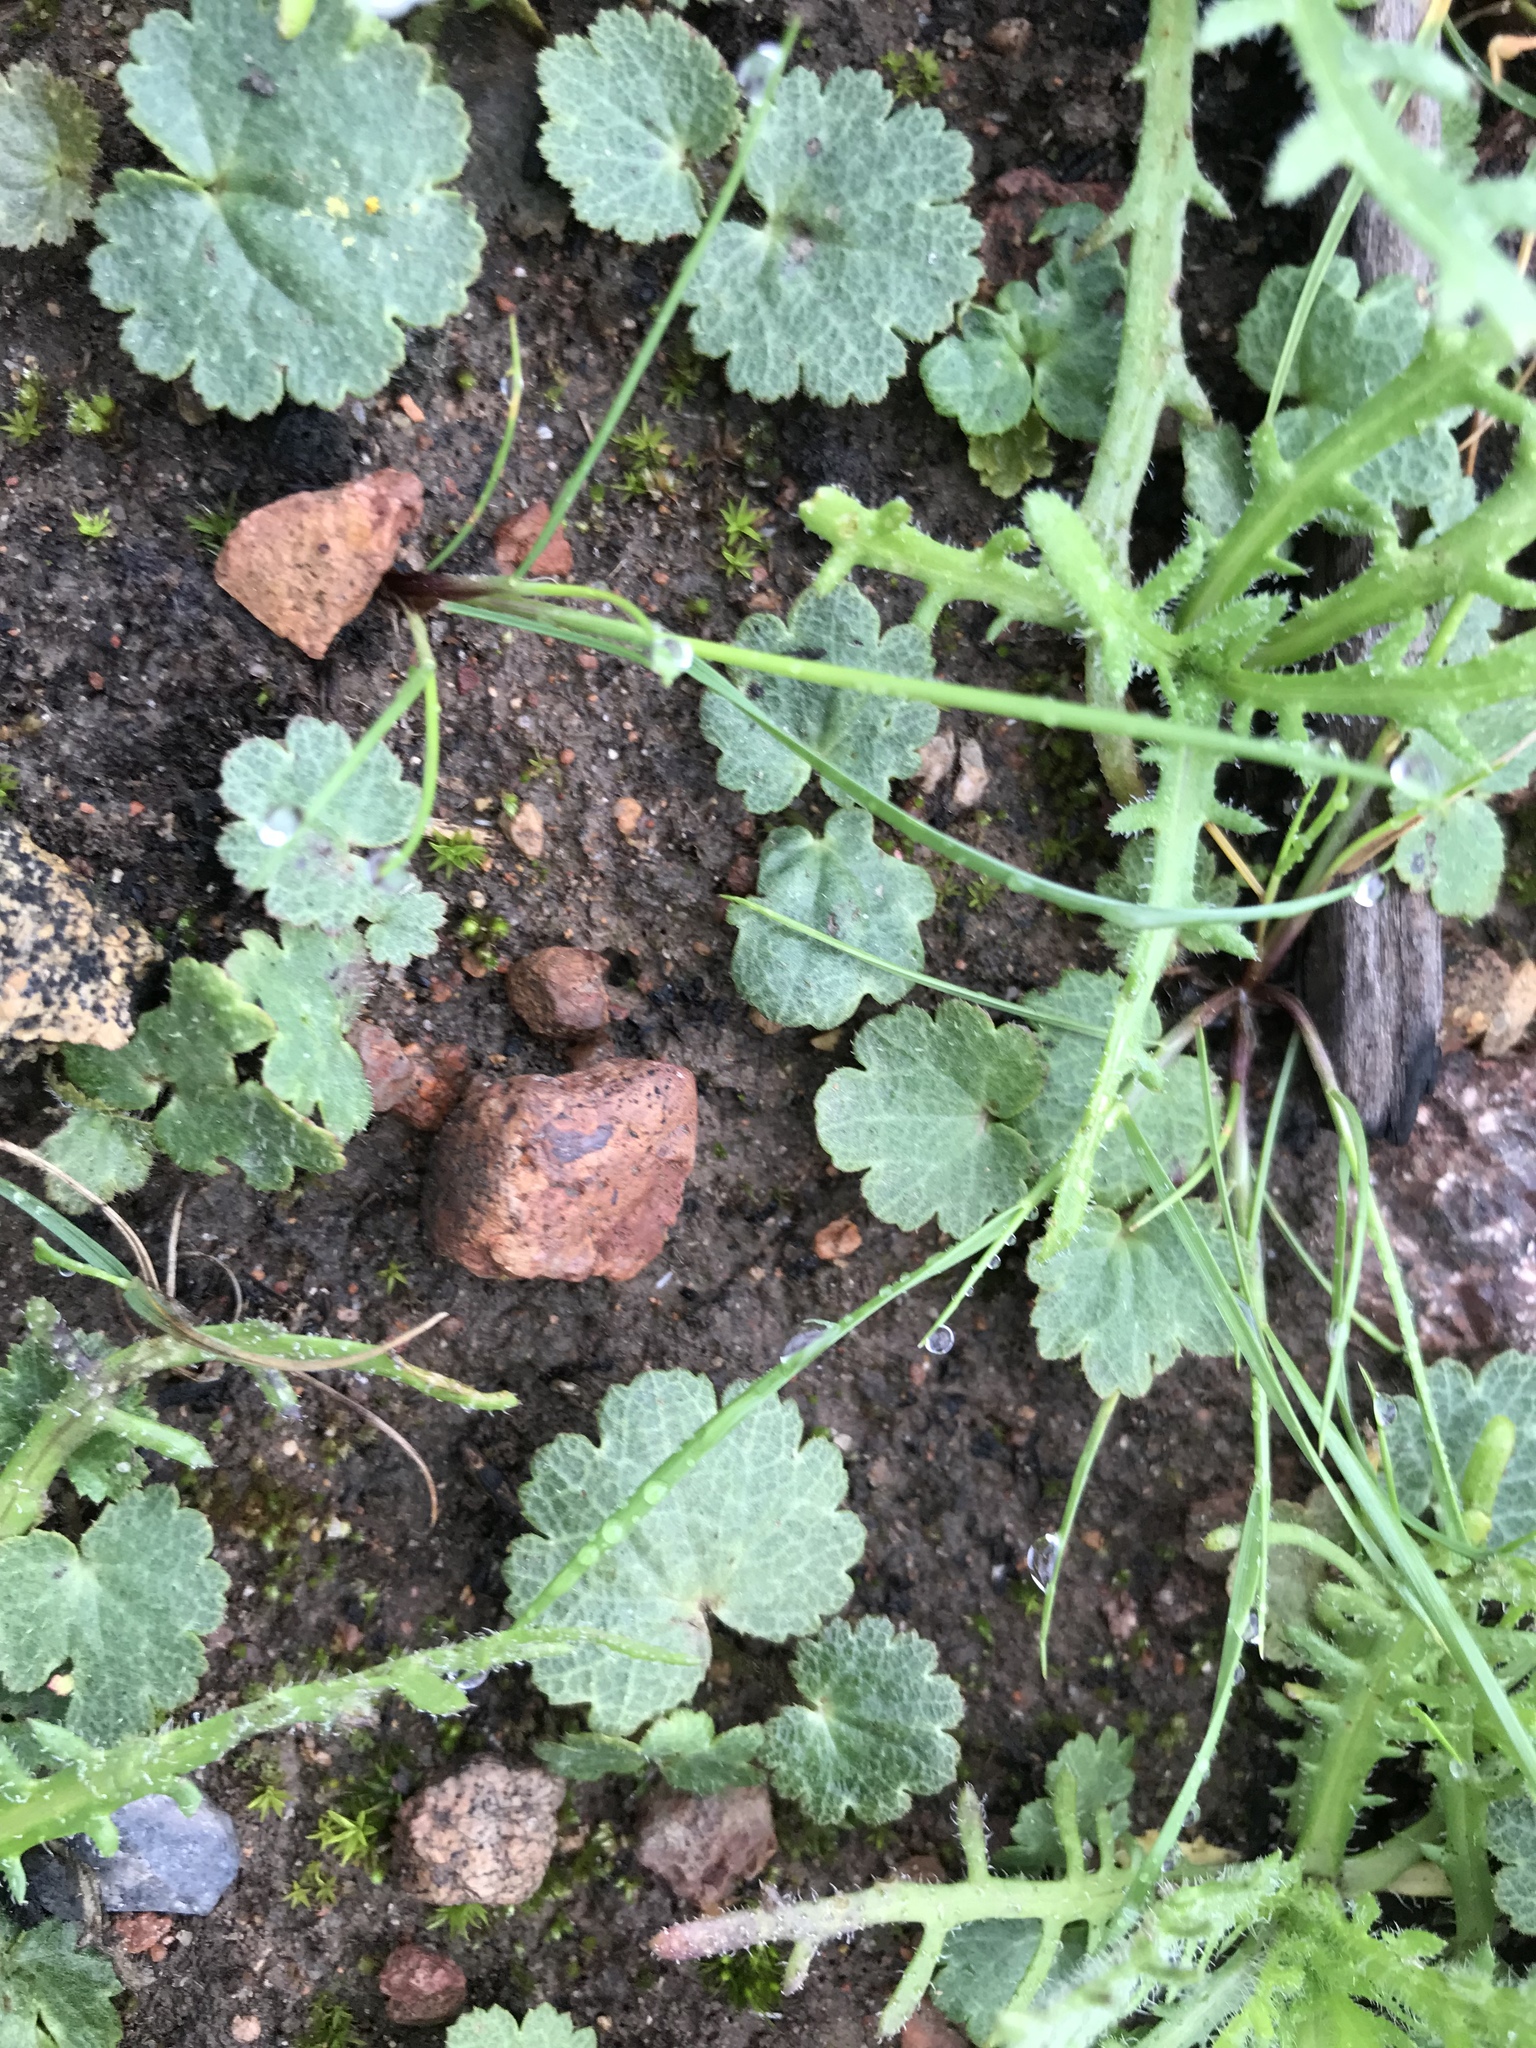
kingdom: Plantae
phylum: Tracheophyta
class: Magnoliopsida
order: Saxifragales
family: Saxifragaceae
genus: Jepsonia
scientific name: Jepsonia parryi
